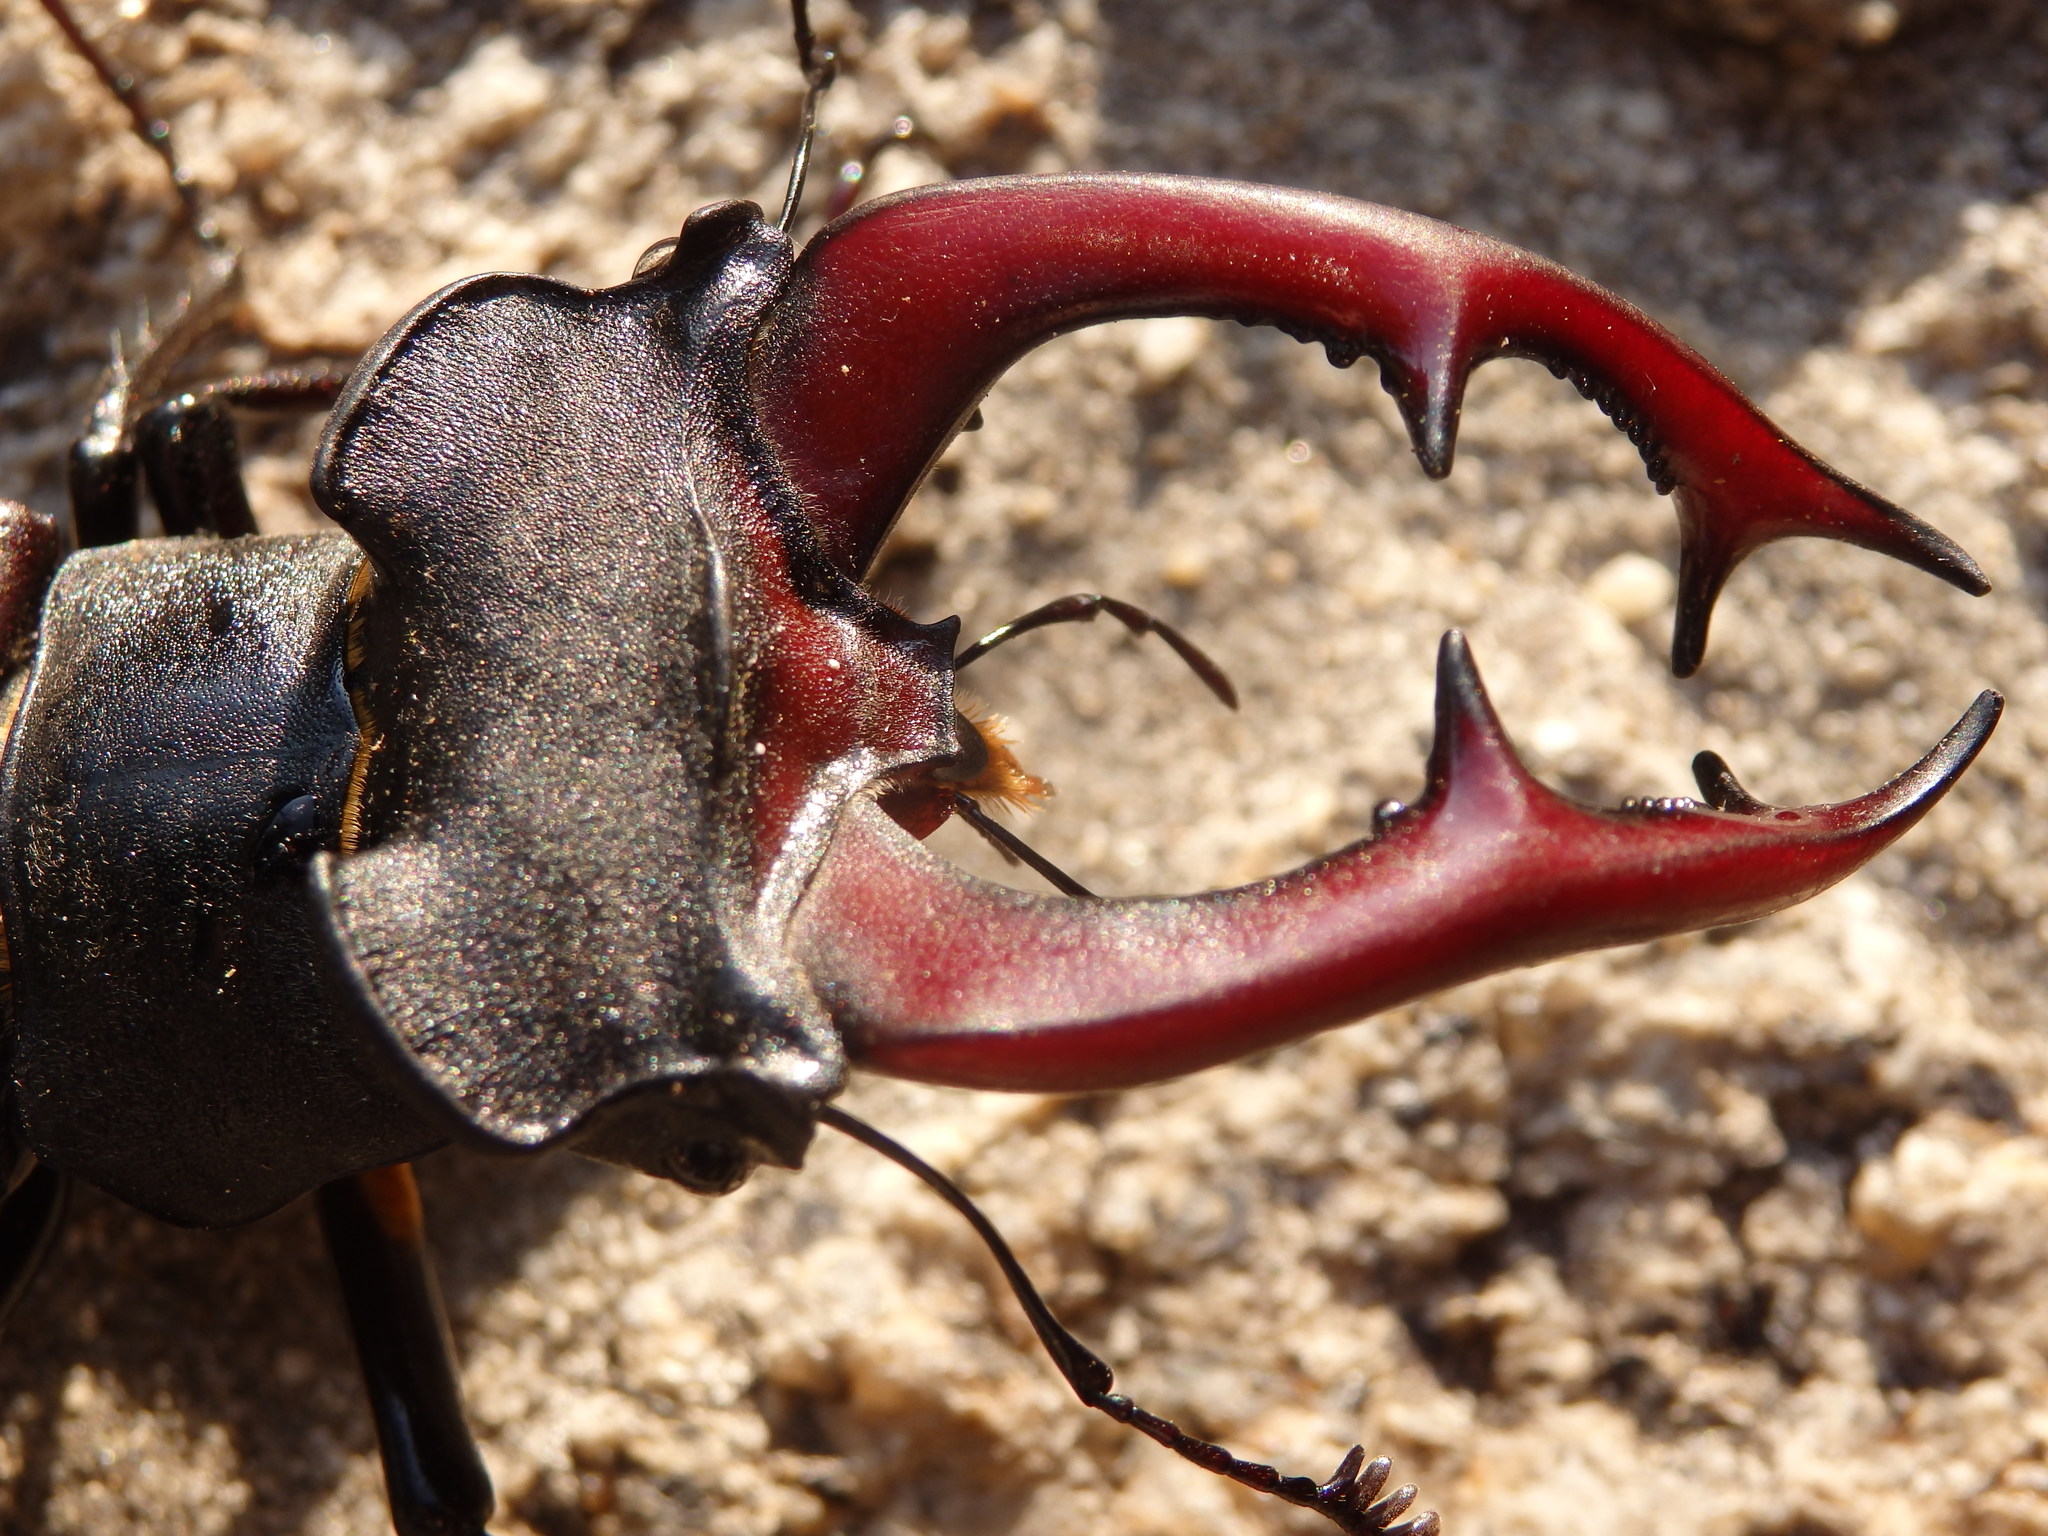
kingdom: Animalia
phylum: Arthropoda
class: Insecta
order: Coleoptera
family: Lucanidae
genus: Lucanus
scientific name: Lucanus cervus
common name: Stag beetle
